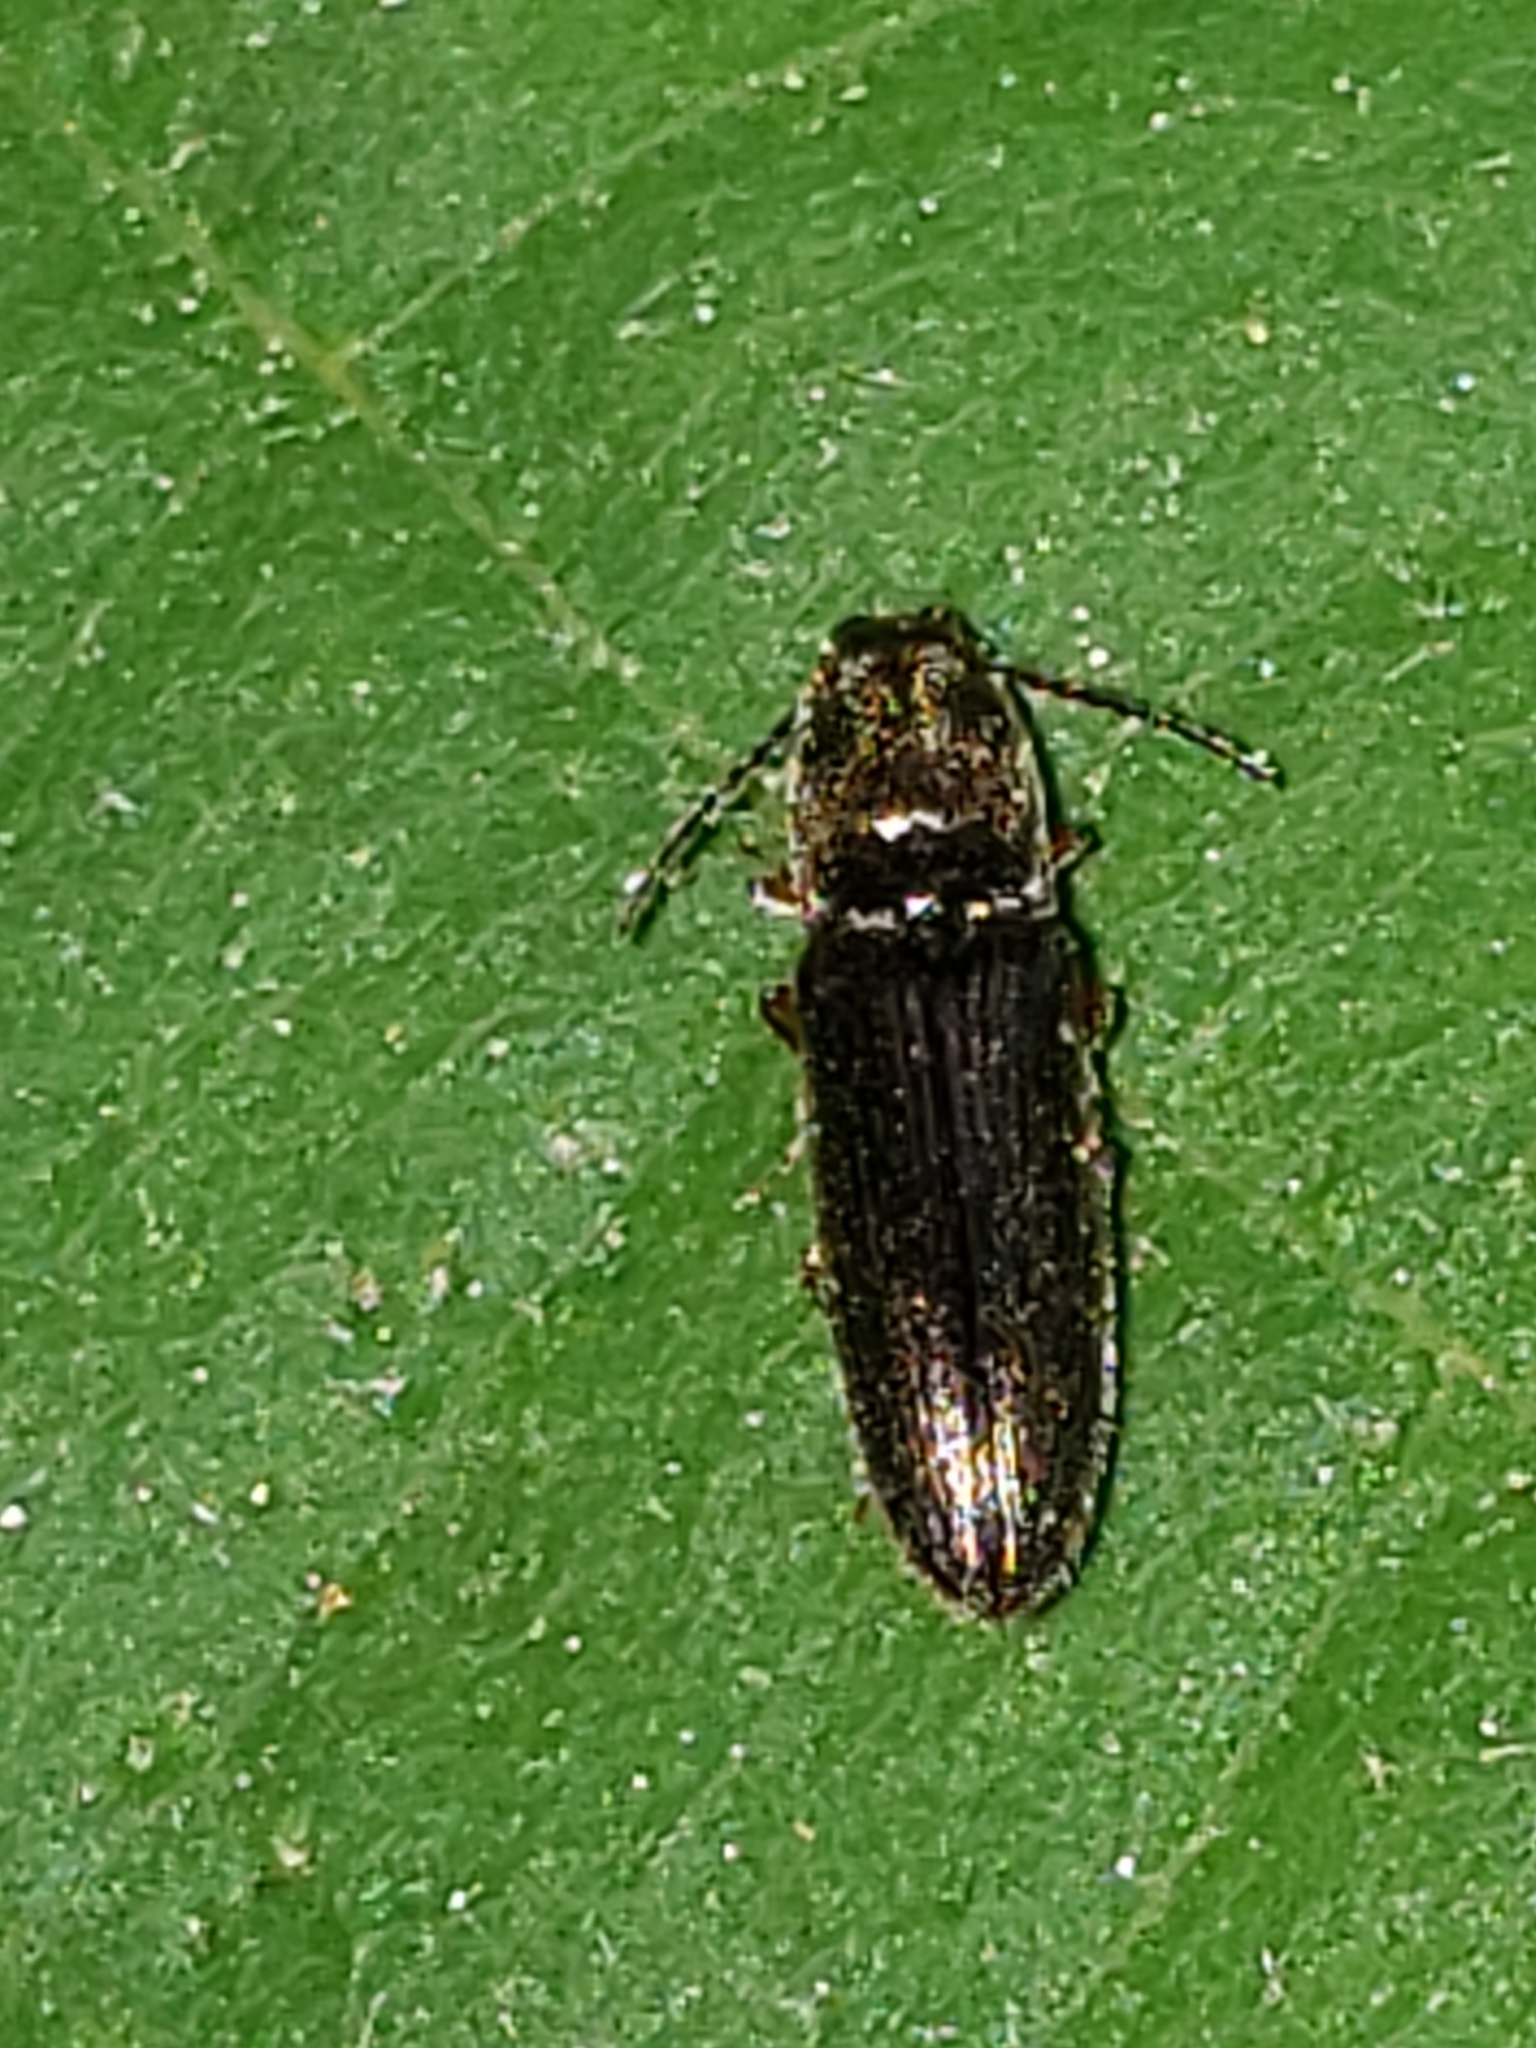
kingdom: Animalia
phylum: Arthropoda
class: Insecta
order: Coleoptera
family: Elateridae
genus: Limonius
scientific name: Limonius quercinus
